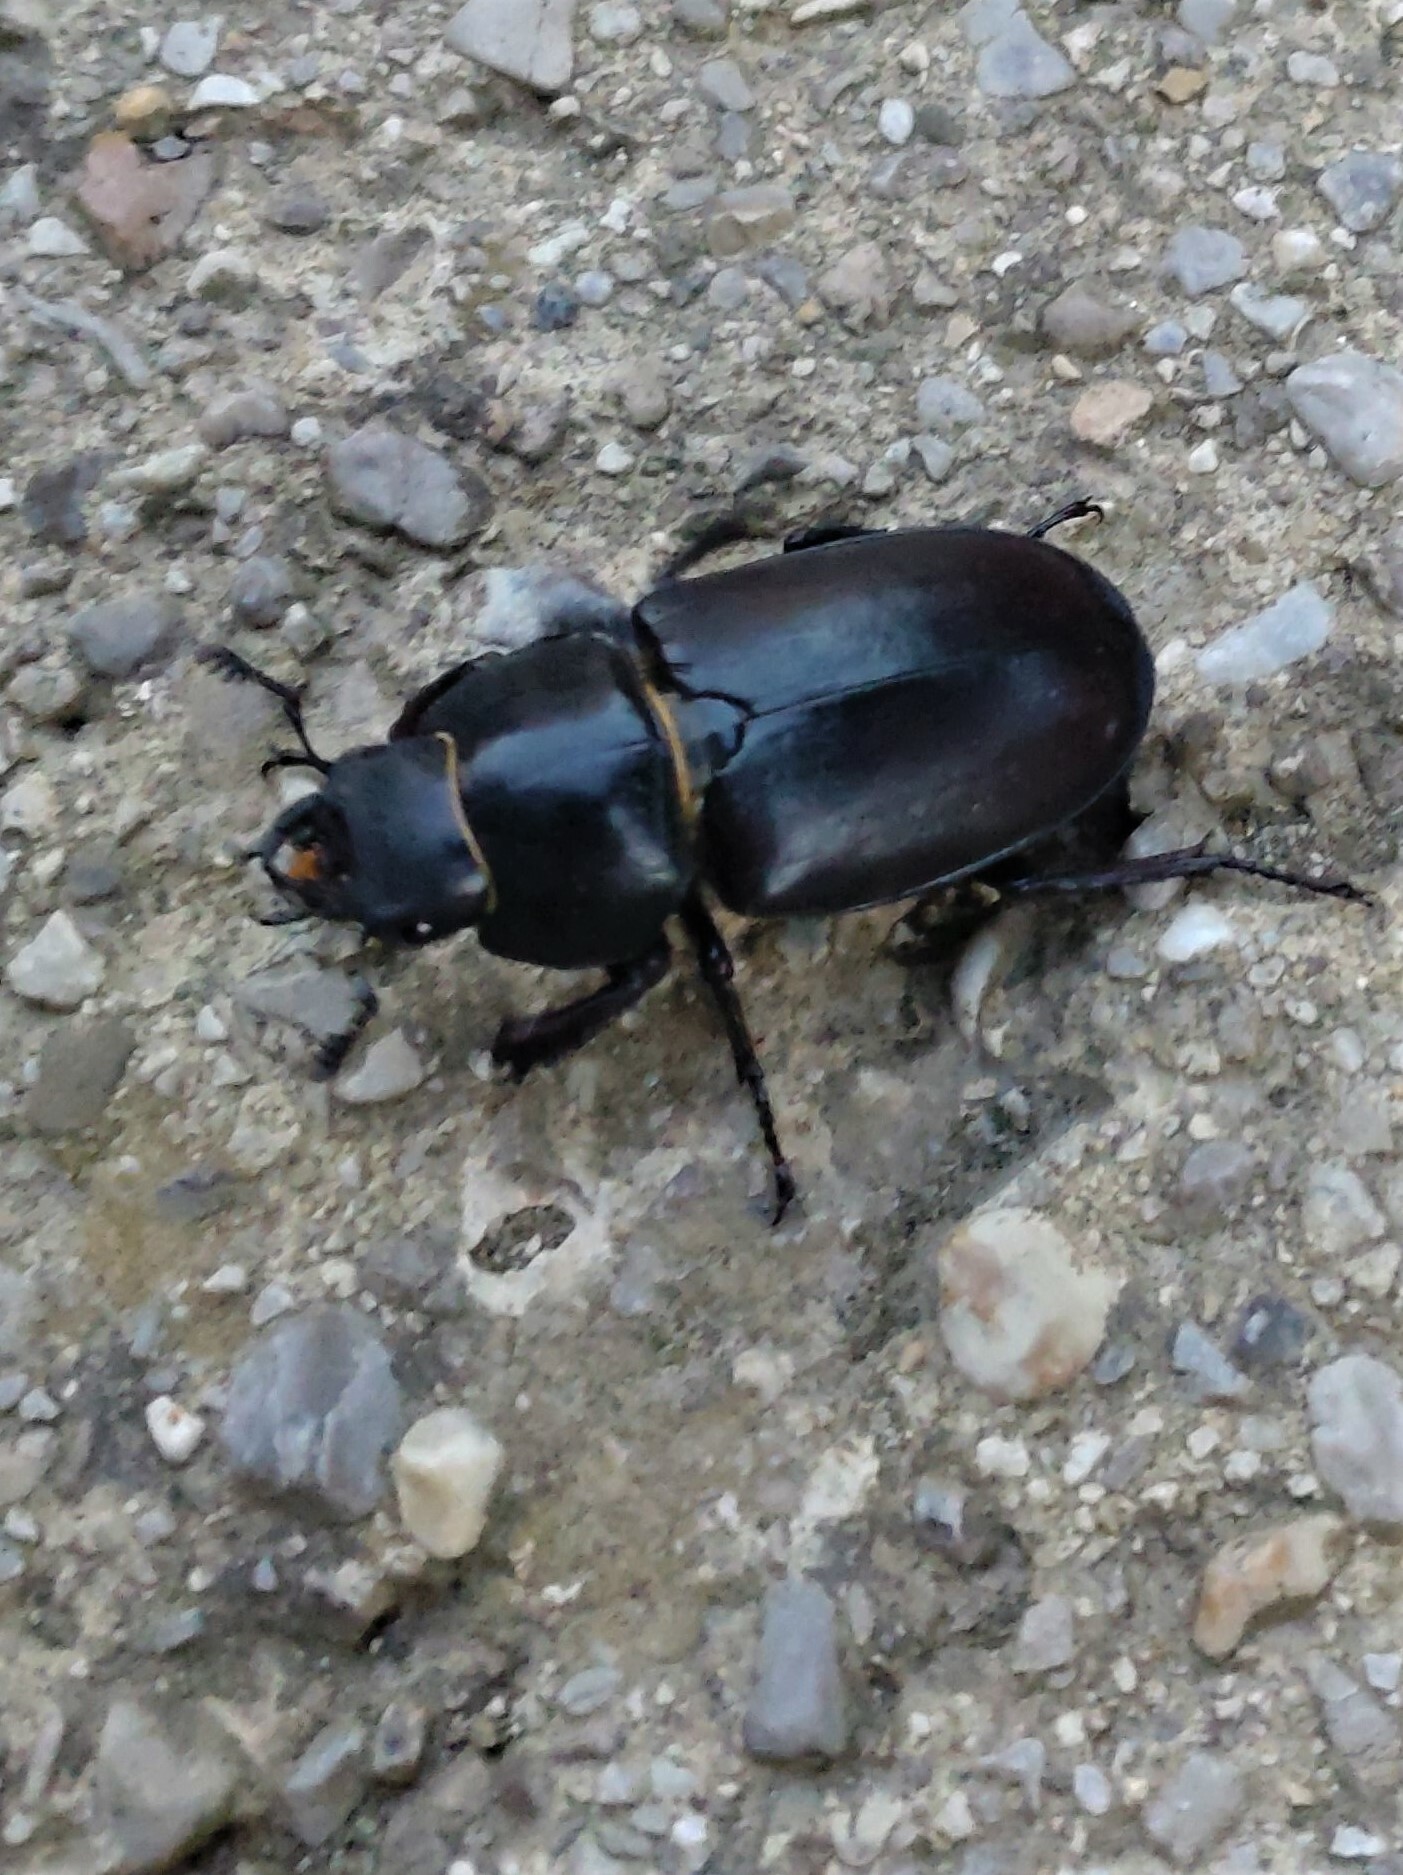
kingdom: Animalia
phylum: Arthropoda
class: Insecta
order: Coleoptera
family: Lucanidae
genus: Lucanus
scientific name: Lucanus cervus
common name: Stag beetle
